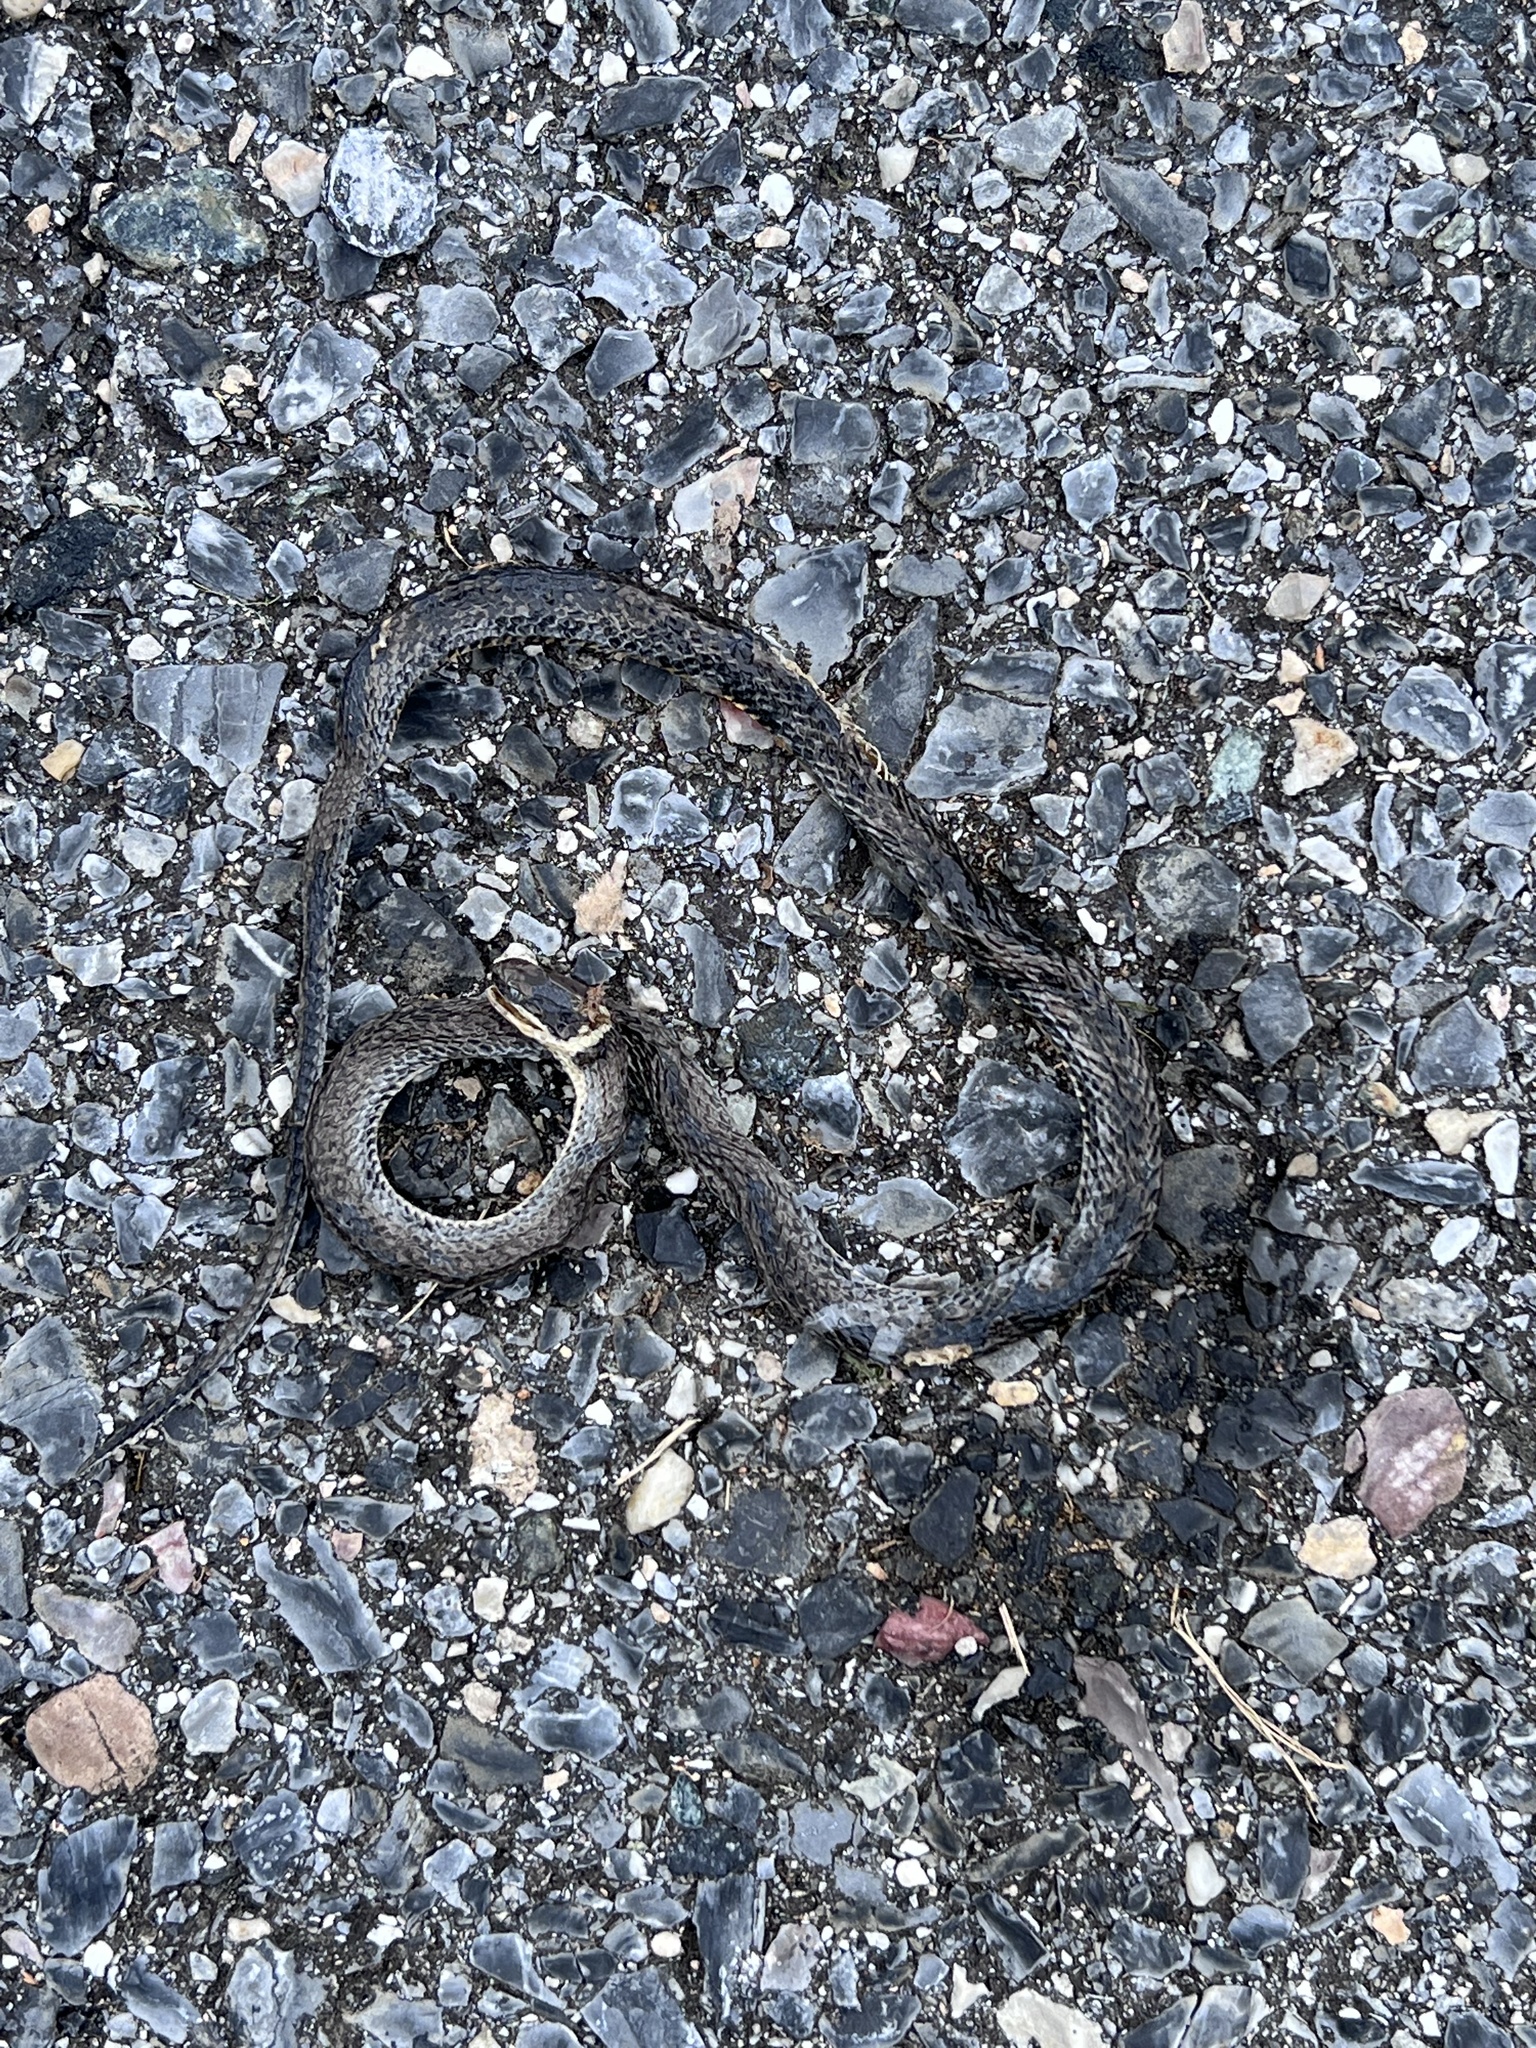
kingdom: Animalia
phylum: Chordata
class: Squamata
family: Colubridae
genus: Diadophis
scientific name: Diadophis punctatus
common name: Ringneck snake
